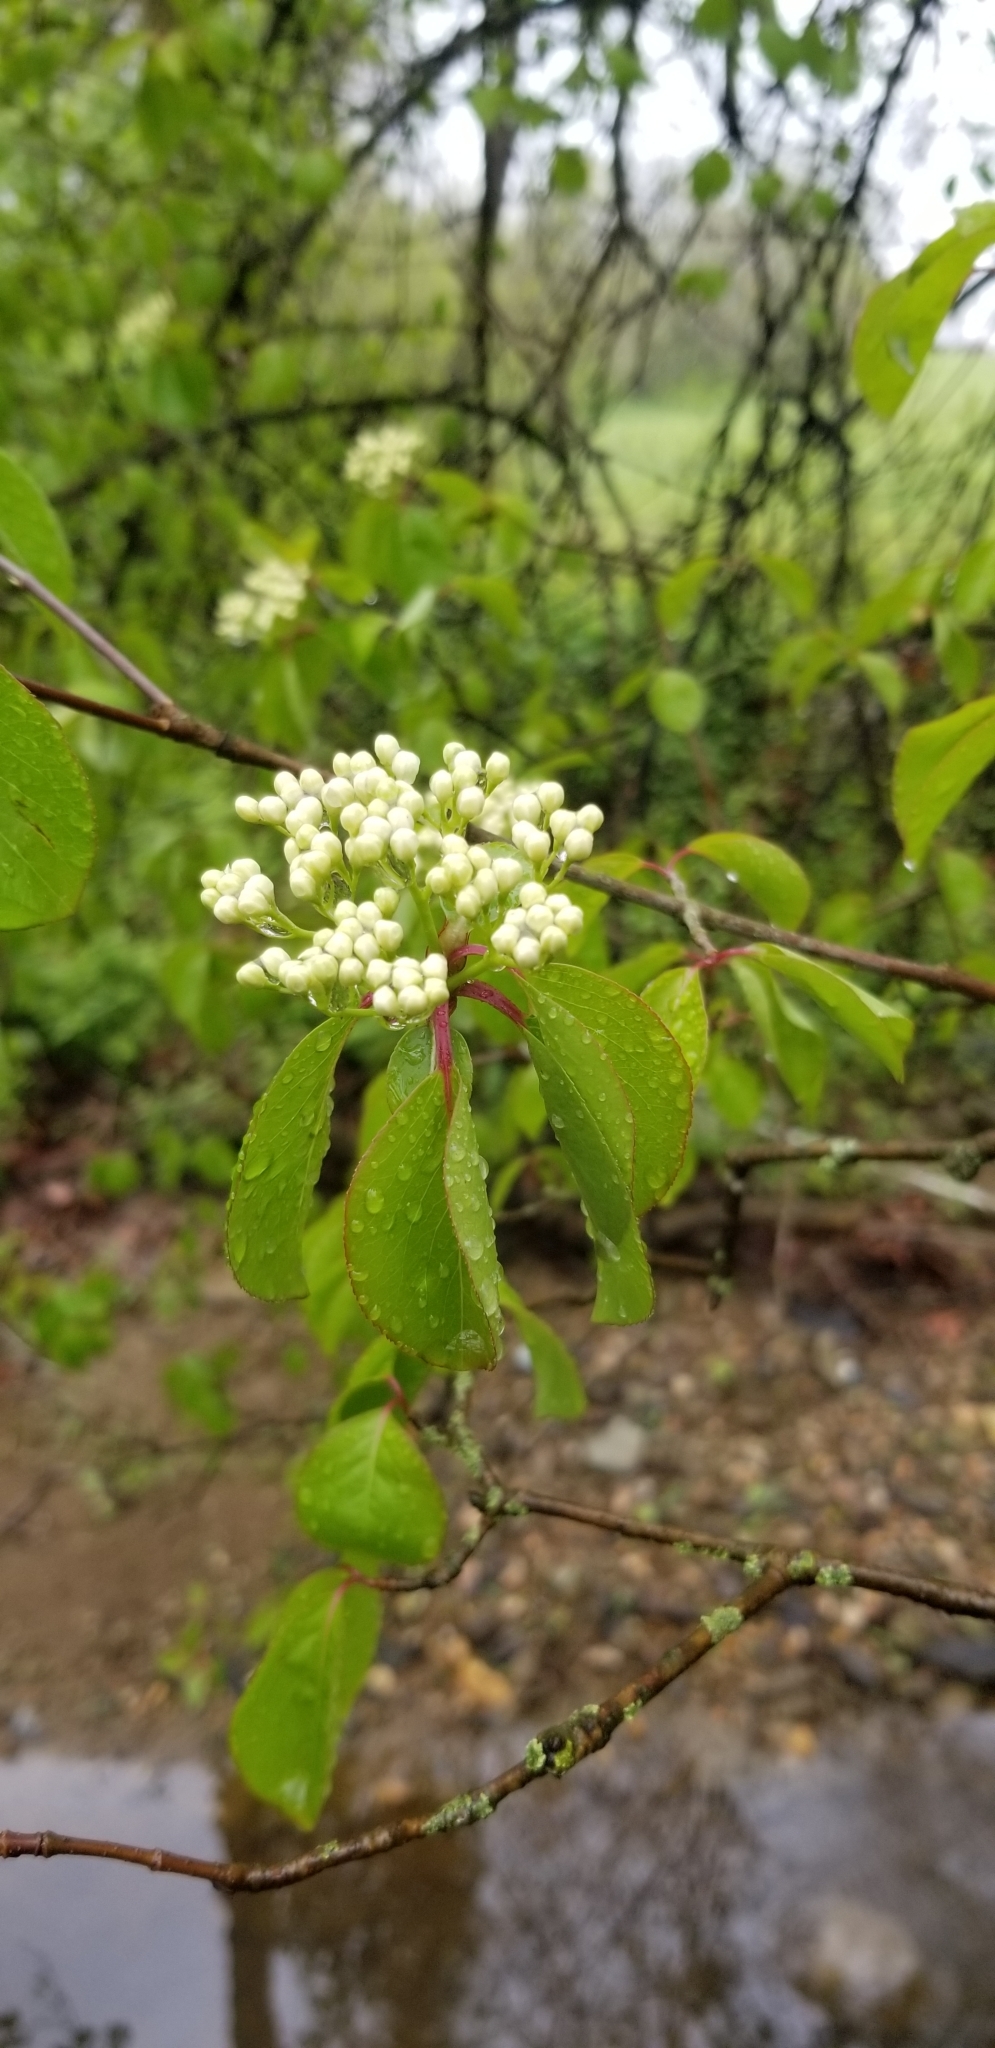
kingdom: Plantae
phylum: Tracheophyta
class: Magnoliopsida
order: Dipsacales
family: Viburnaceae
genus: Viburnum
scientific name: Viburnum prunifolium
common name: Black haw
